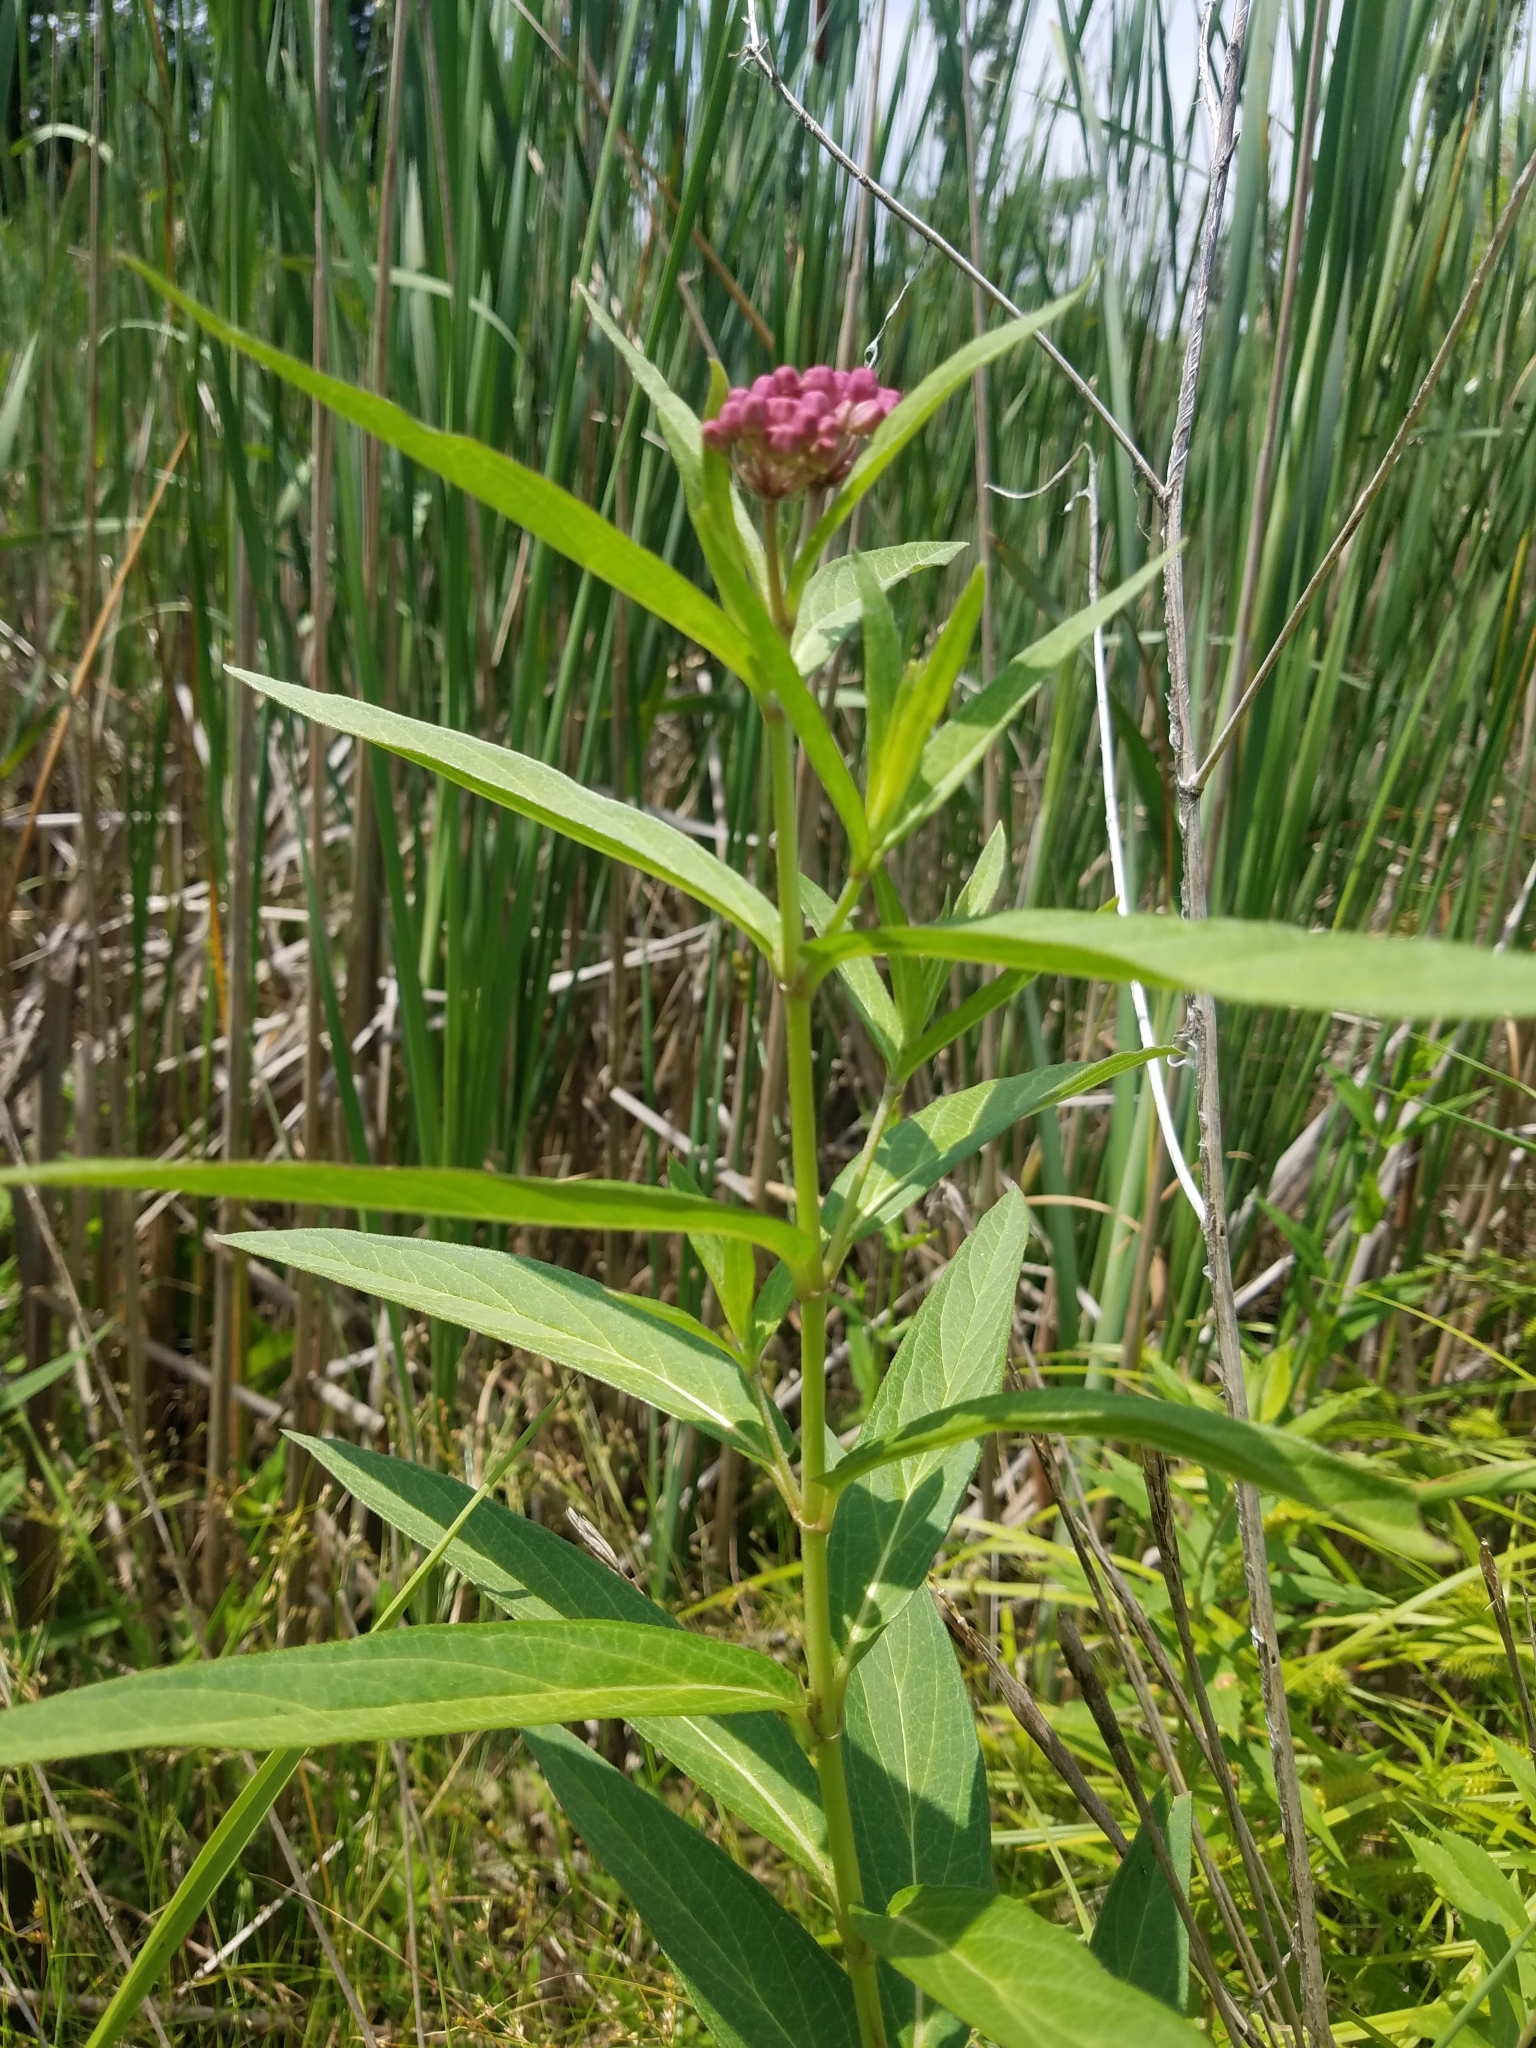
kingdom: Plantae
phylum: Tracheophyta
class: Magnoliopsida
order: Gentianales
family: Apocynaceae
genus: Asclepias
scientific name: Asclepias incarnata
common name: Swamp milkweed
